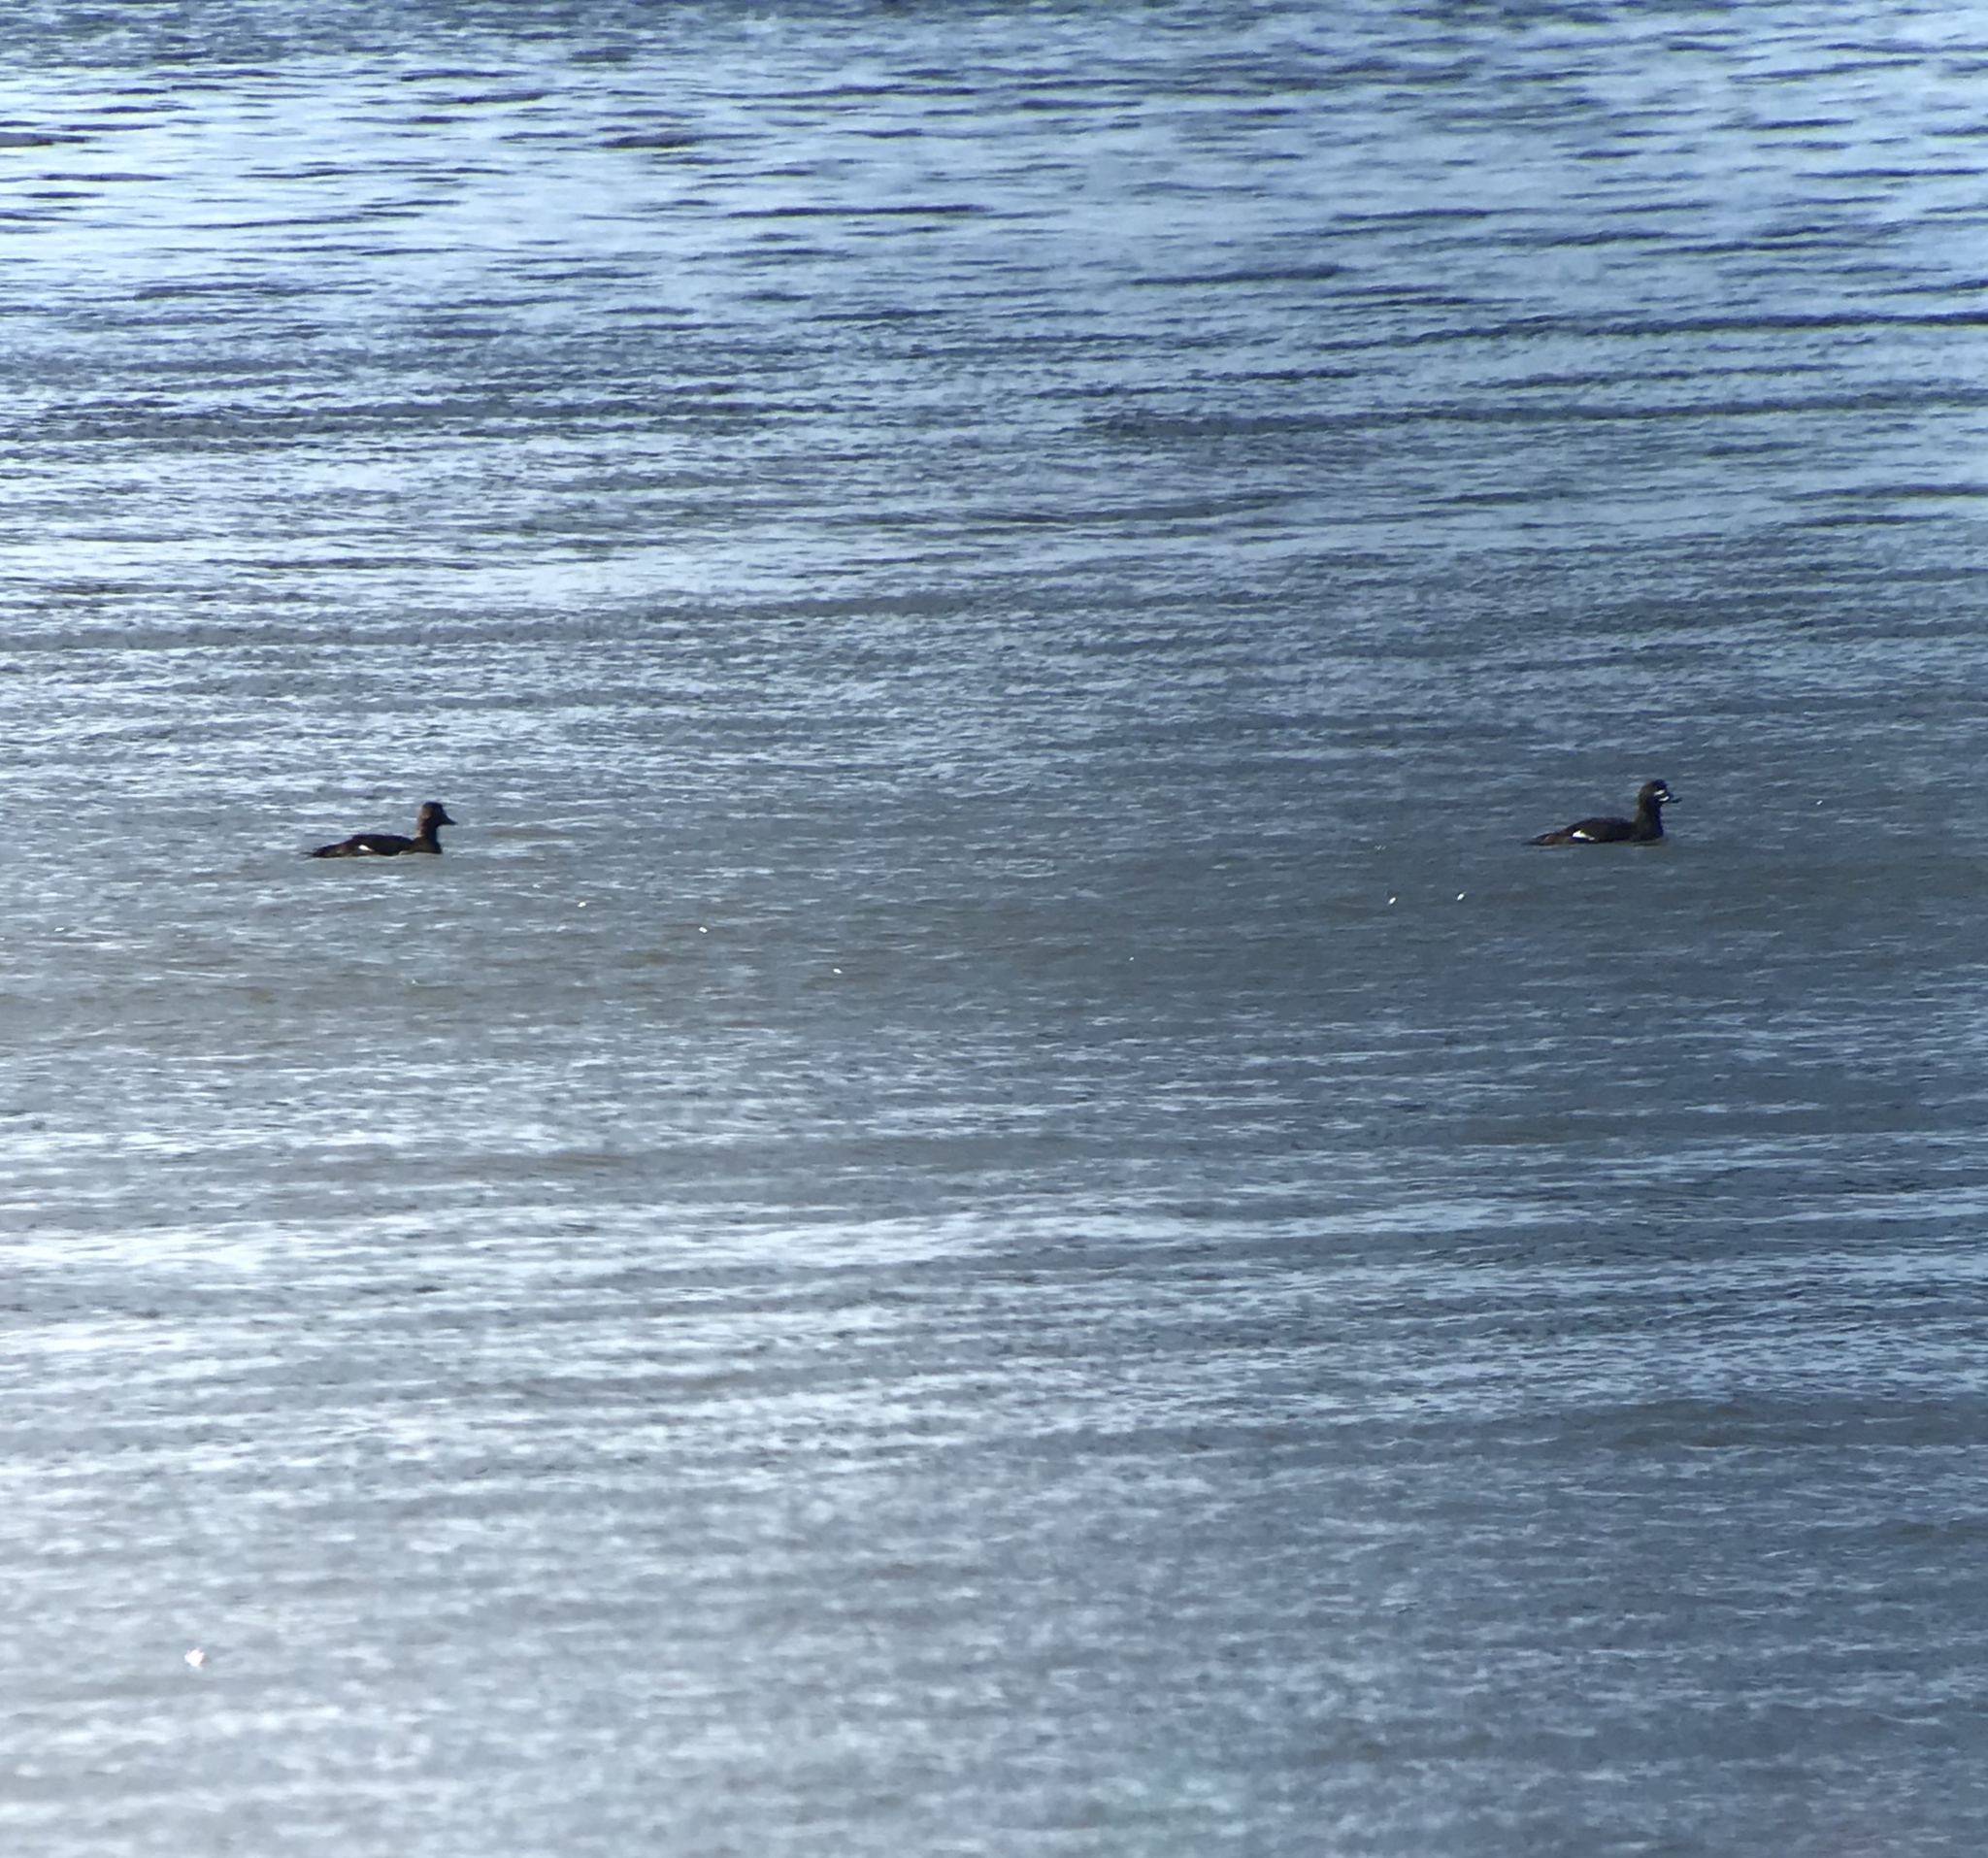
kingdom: Animalia
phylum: Chordata
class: Aves
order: Anseriformes
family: Anatidae
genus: Melanitta
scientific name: Melanitta deglandi
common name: White-winged scoter
